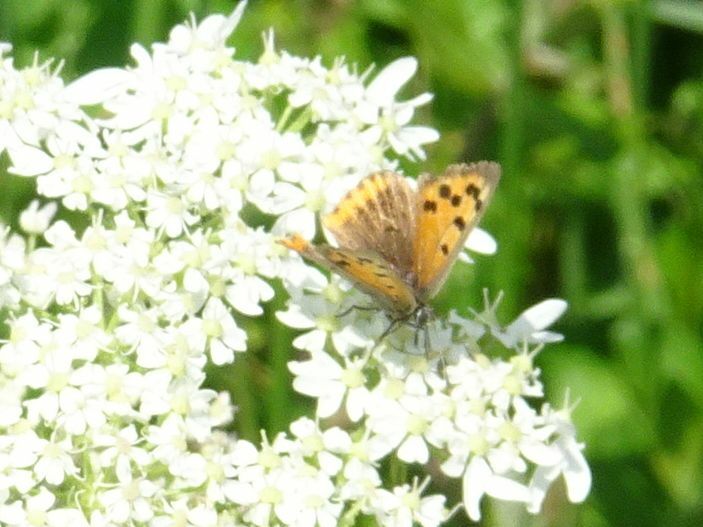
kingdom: Animalia
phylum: Arthropoda
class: Insecta
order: Lepidoptera
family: Lycaenidae
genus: Lycaena
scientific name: Lycaena phlaeas
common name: Small copper
